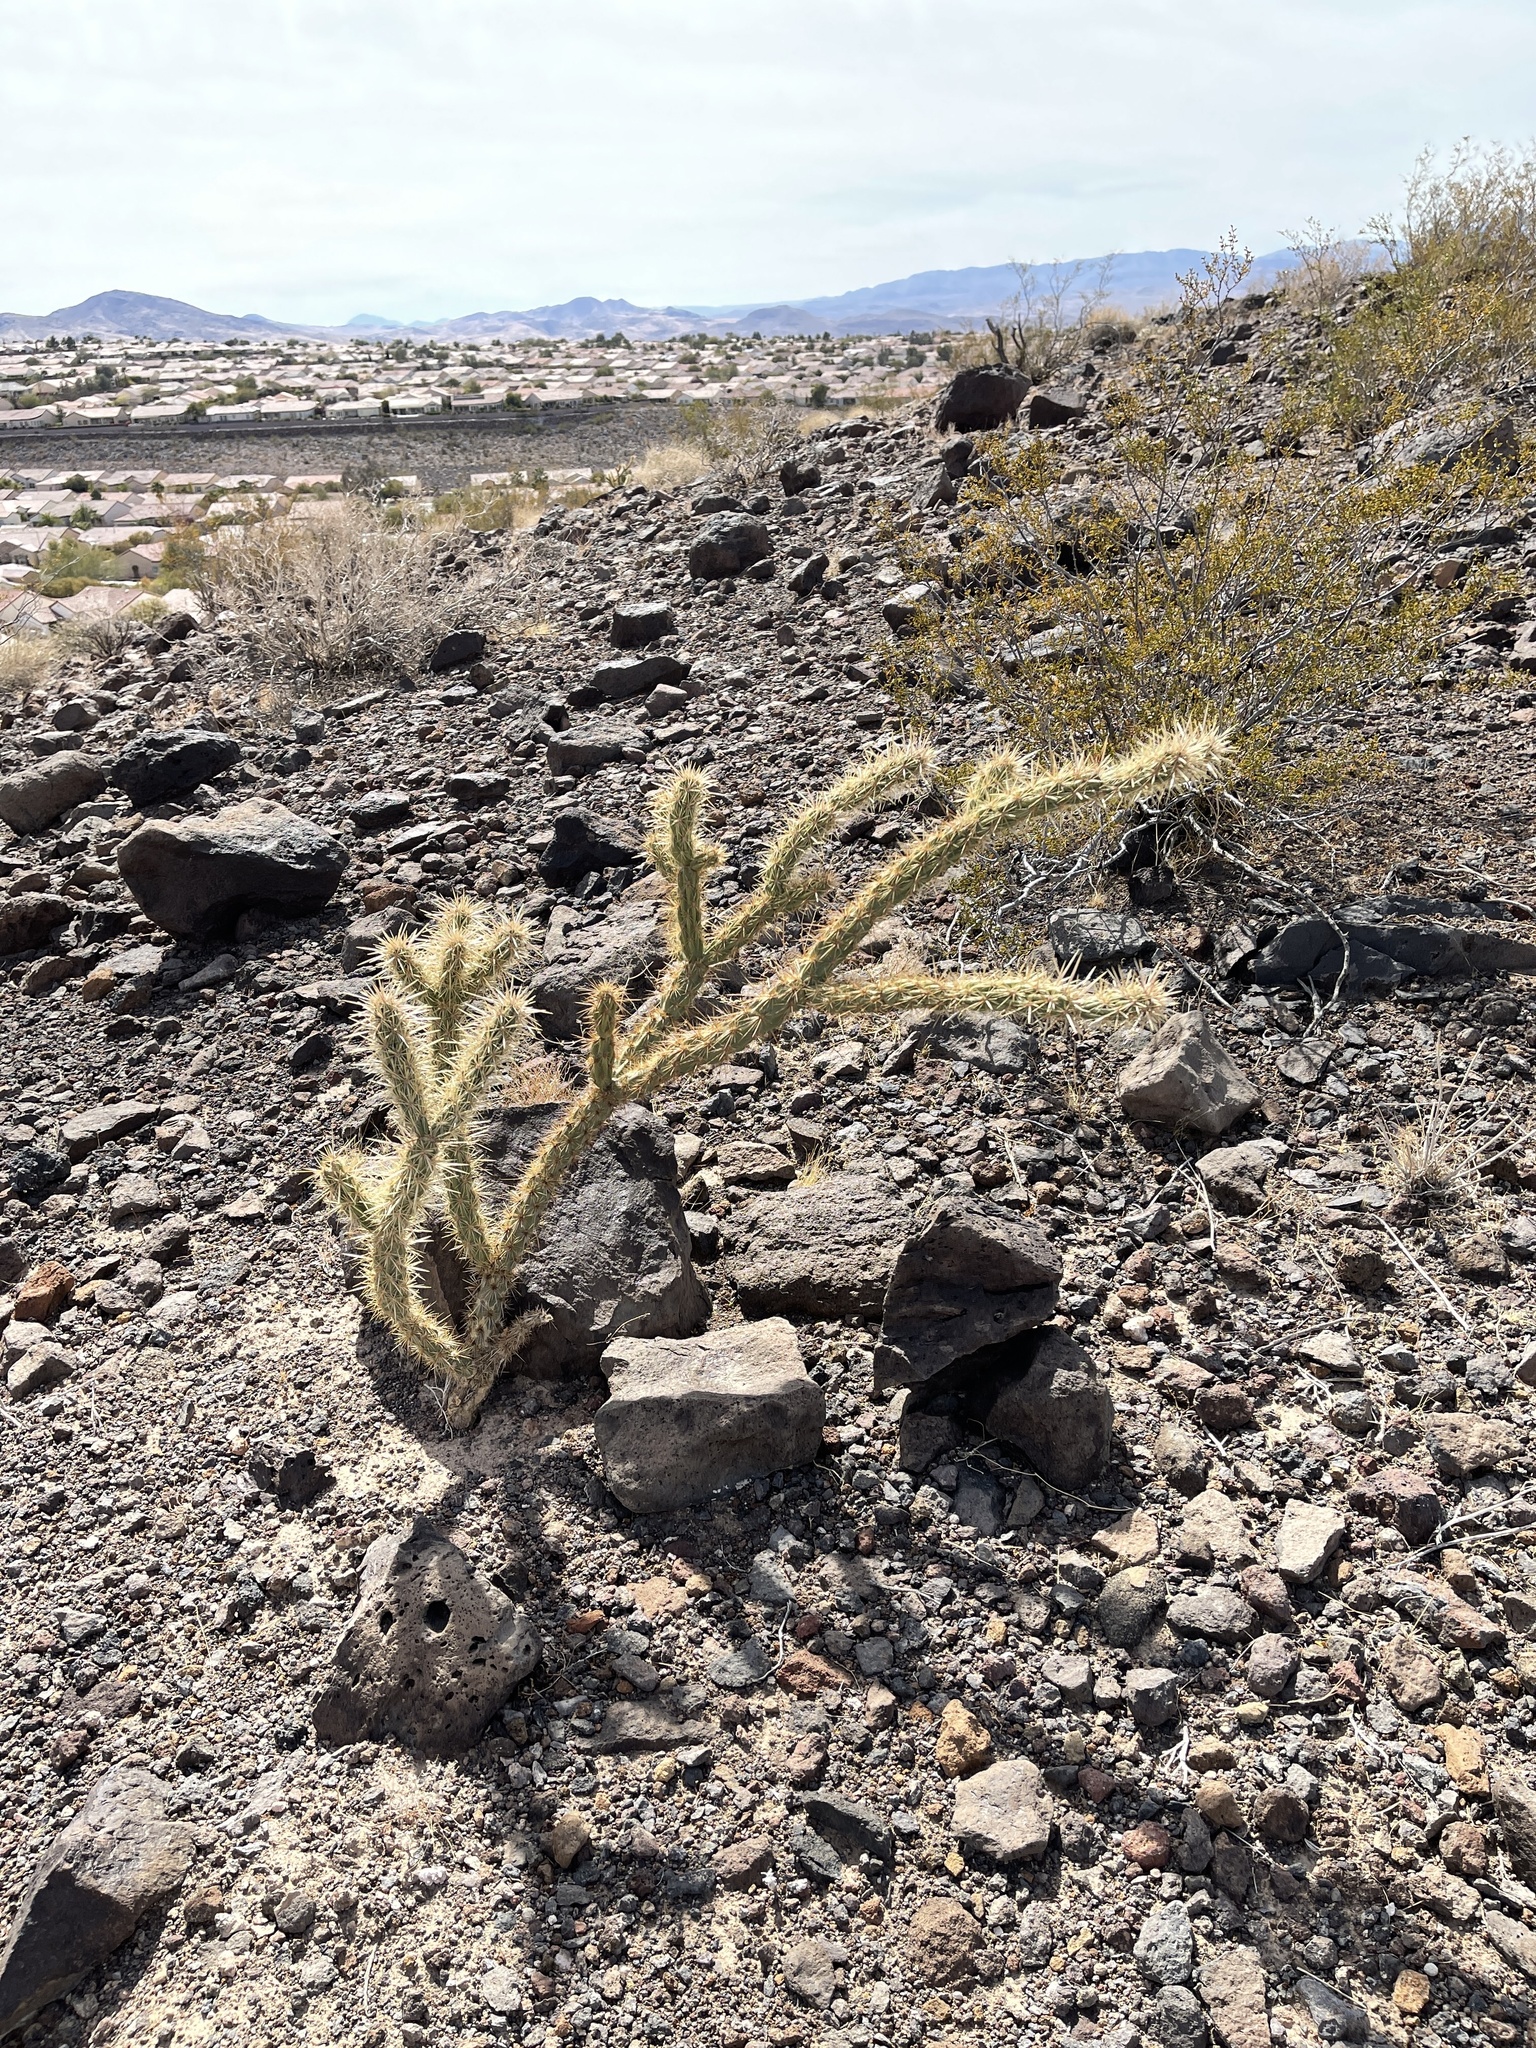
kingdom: Plantae
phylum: Tracheophyta
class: Magnoliopsida
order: Caryophyllales
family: Cactaceae
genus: Cylindropuntia
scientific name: Cylindropuntia acanthocarpa
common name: Buckhorn cholla
